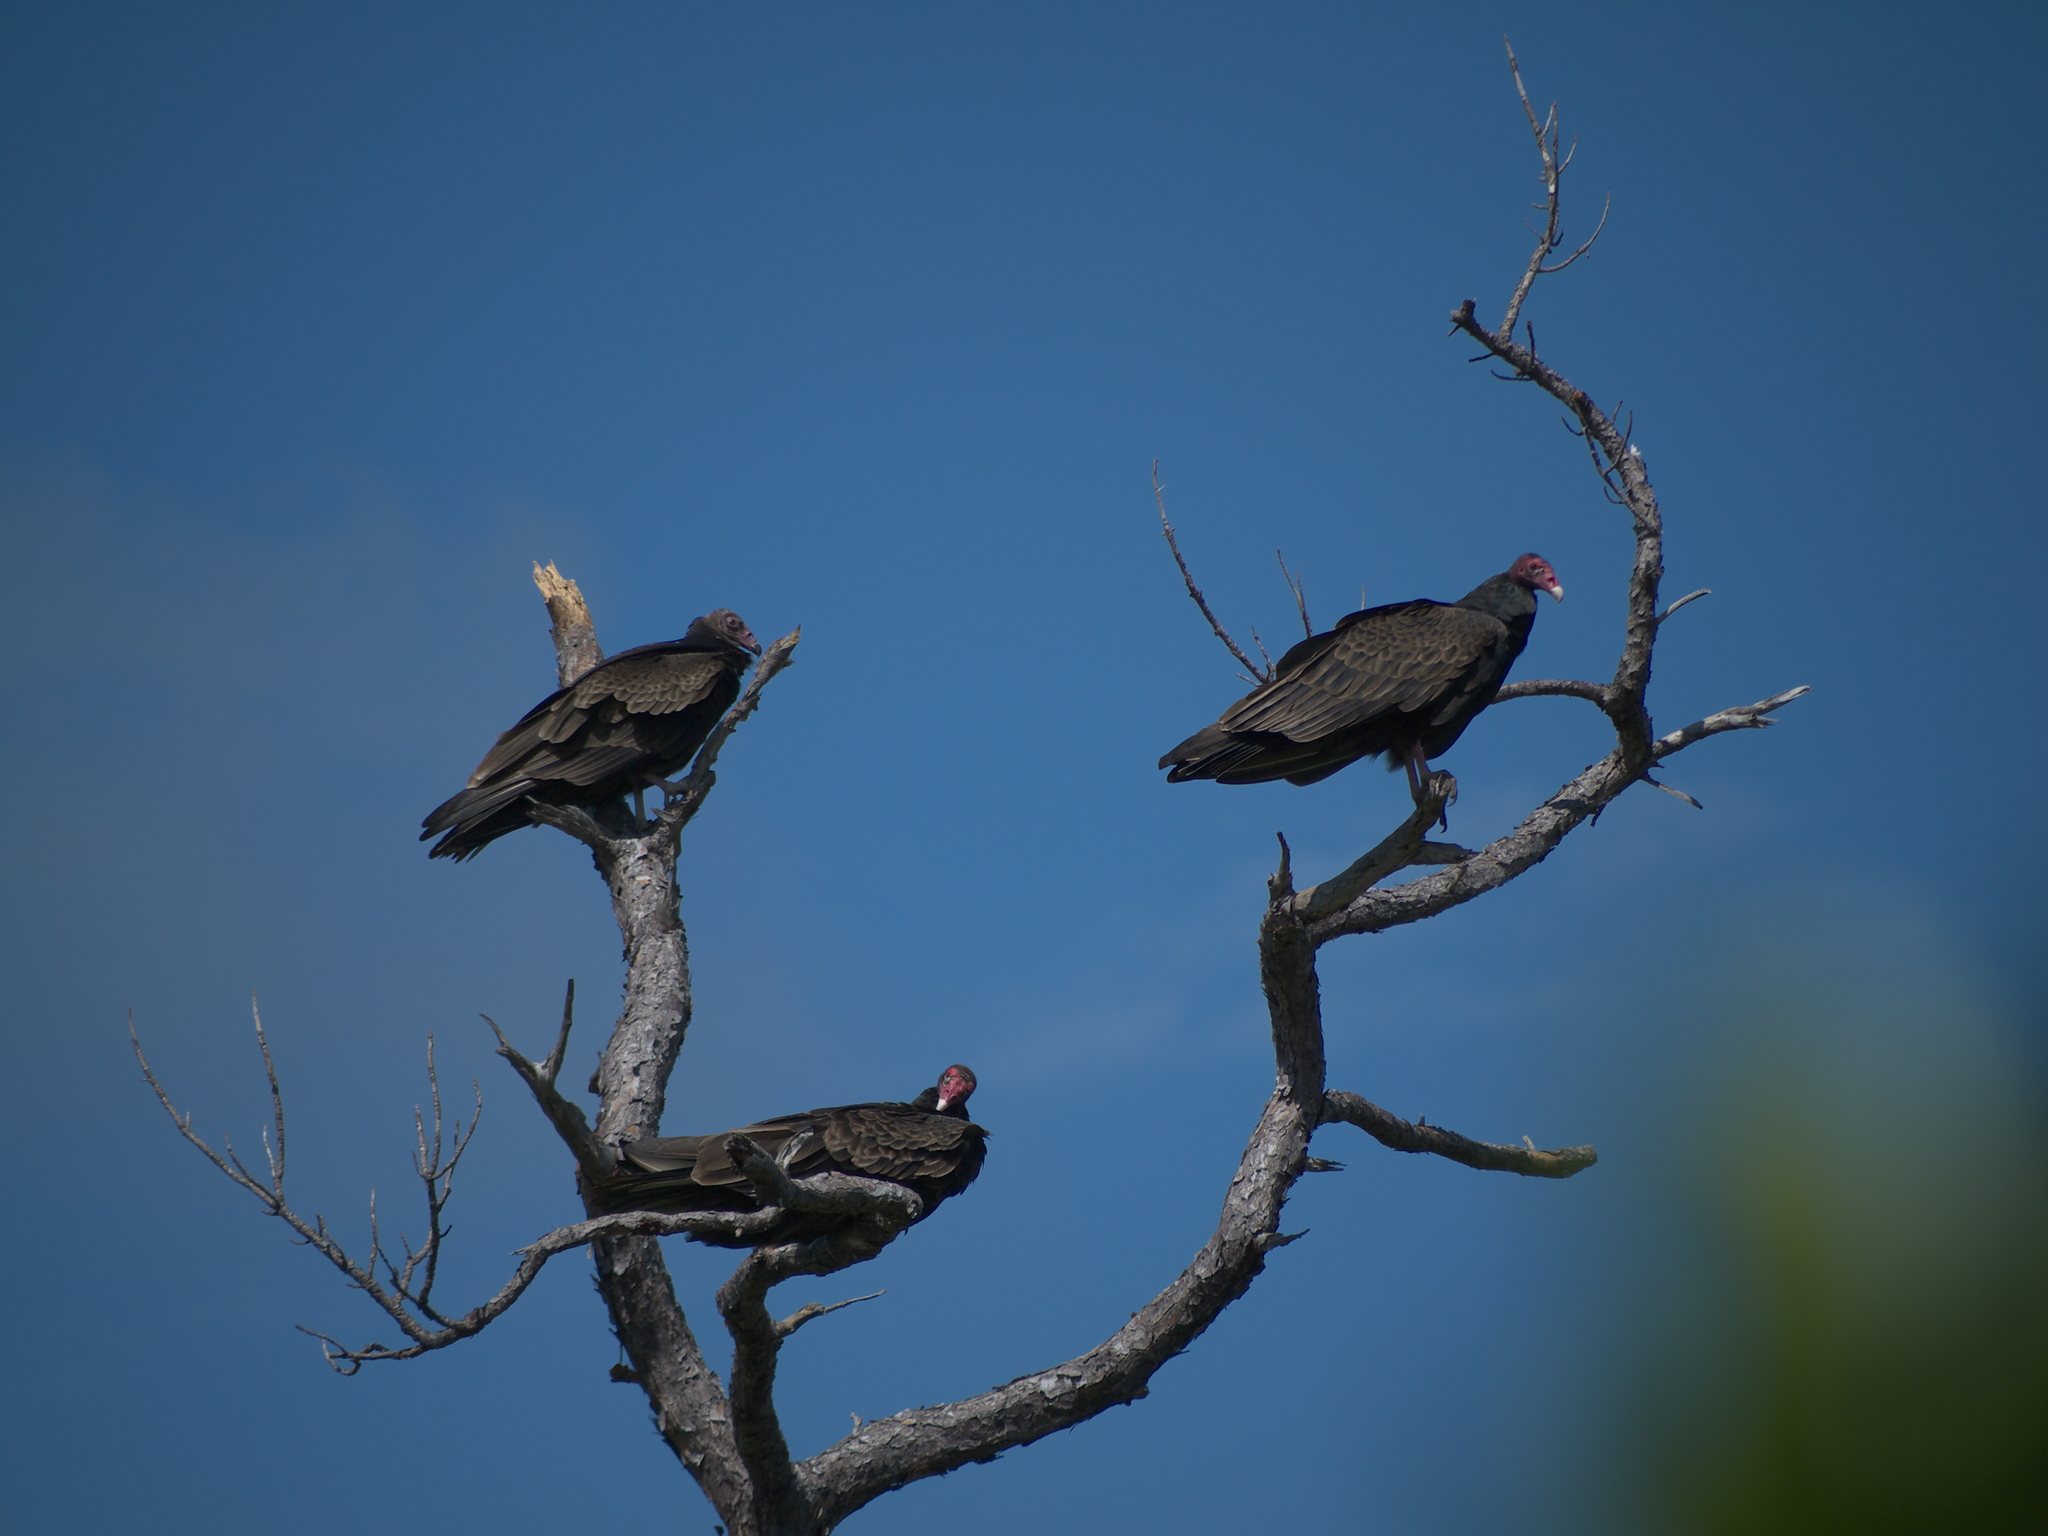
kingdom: Animalia
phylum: Chordata
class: Aves
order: Accipitriformes
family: Cathartidae
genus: Cathartes
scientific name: Cathartes aura
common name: Turkey vulture
